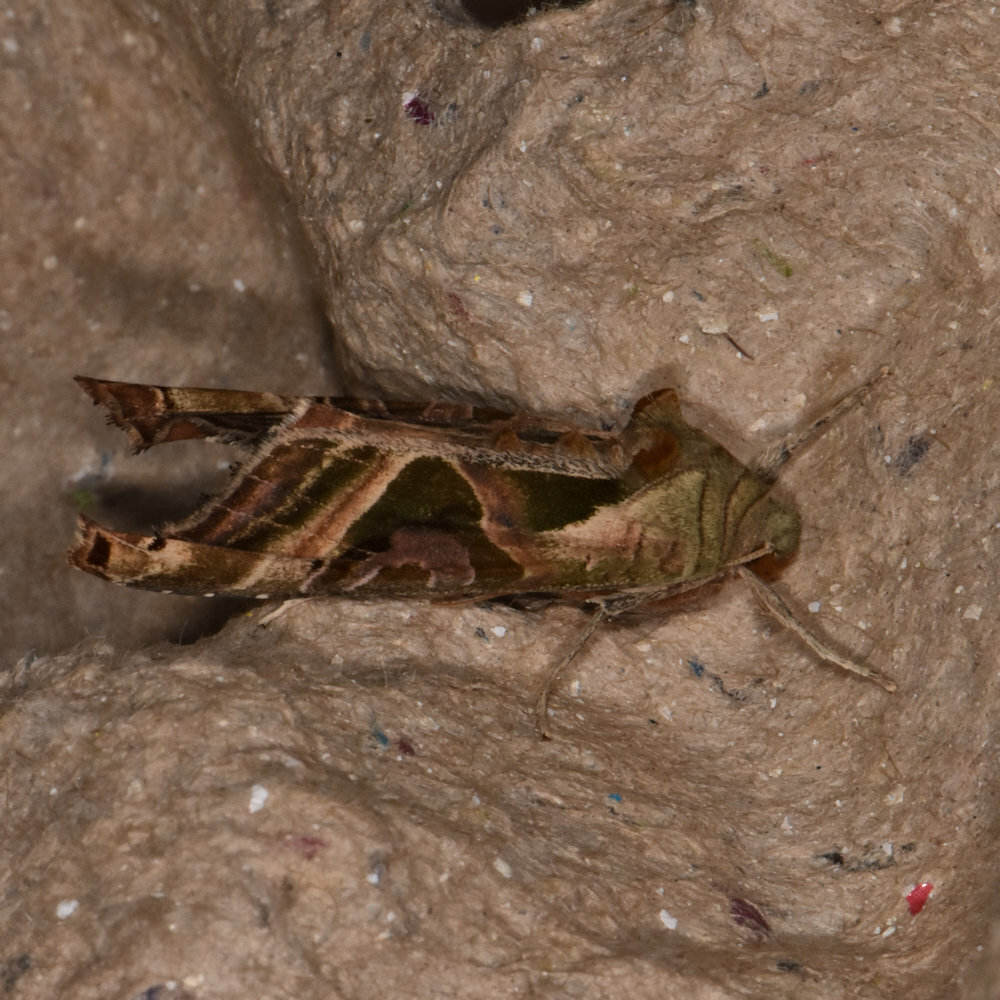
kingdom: Animalia
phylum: Arthropoda
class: Insecta
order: Lepidoptera
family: Noctuidae
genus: Phlogophora
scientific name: Phlogophora iris
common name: Olive angle shades
